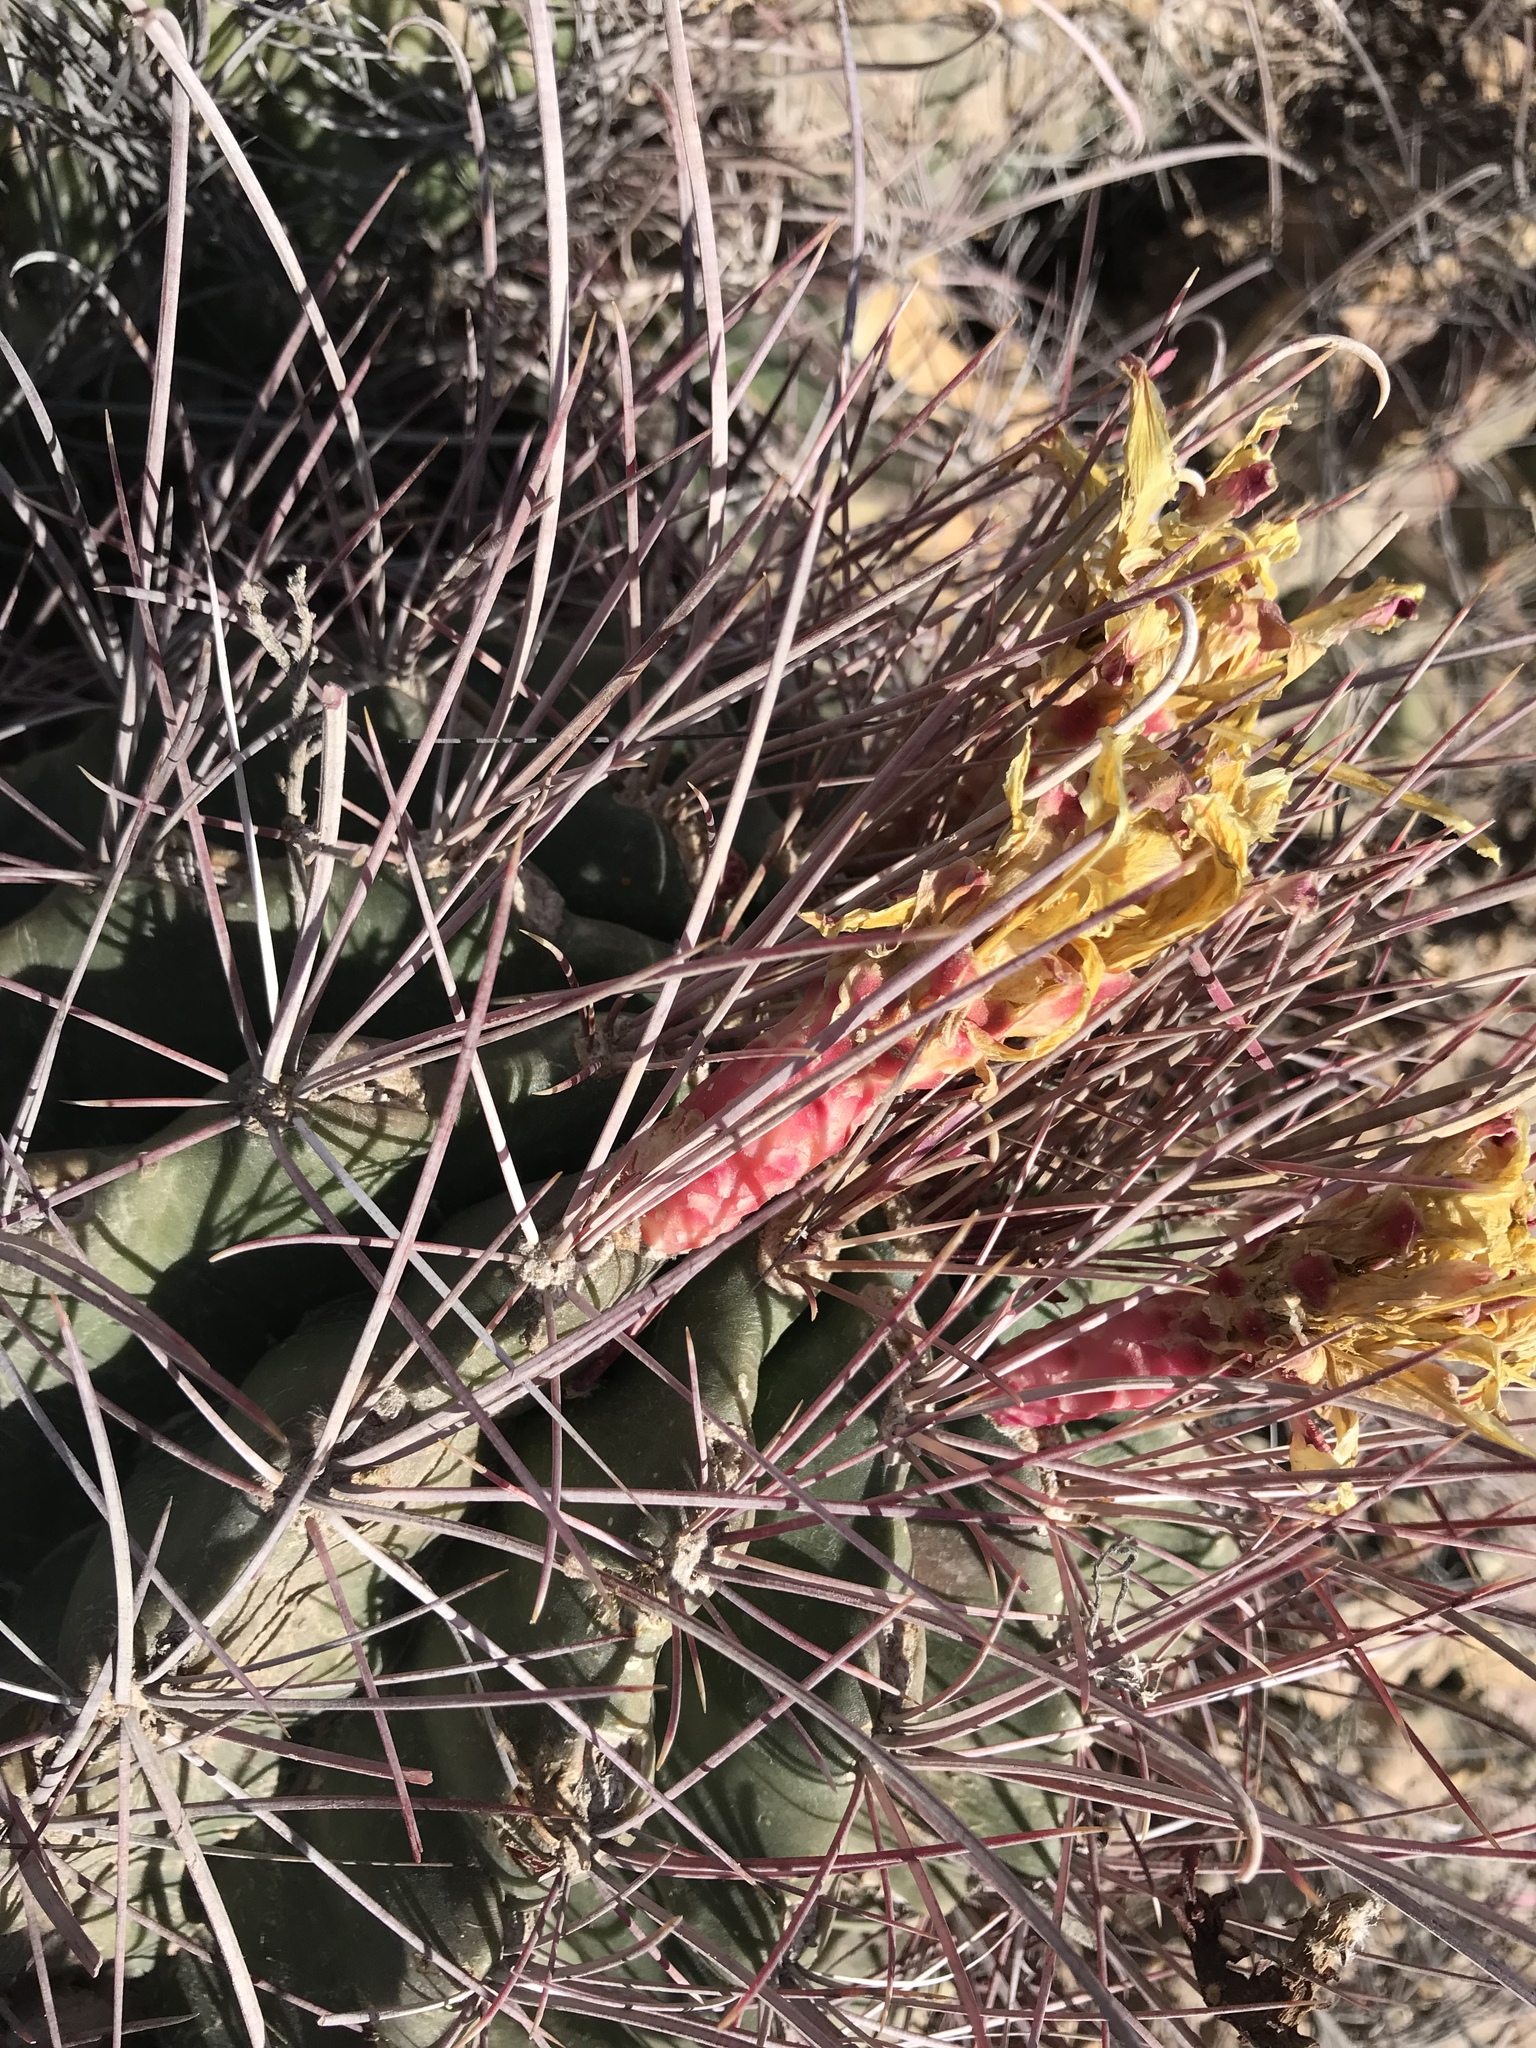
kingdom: Plantae
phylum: Tracheophyta
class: Magnoliopsida
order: Caryophyllales
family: Cactaceae
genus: Bisnaga
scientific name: Bisnaga hamatacantha
